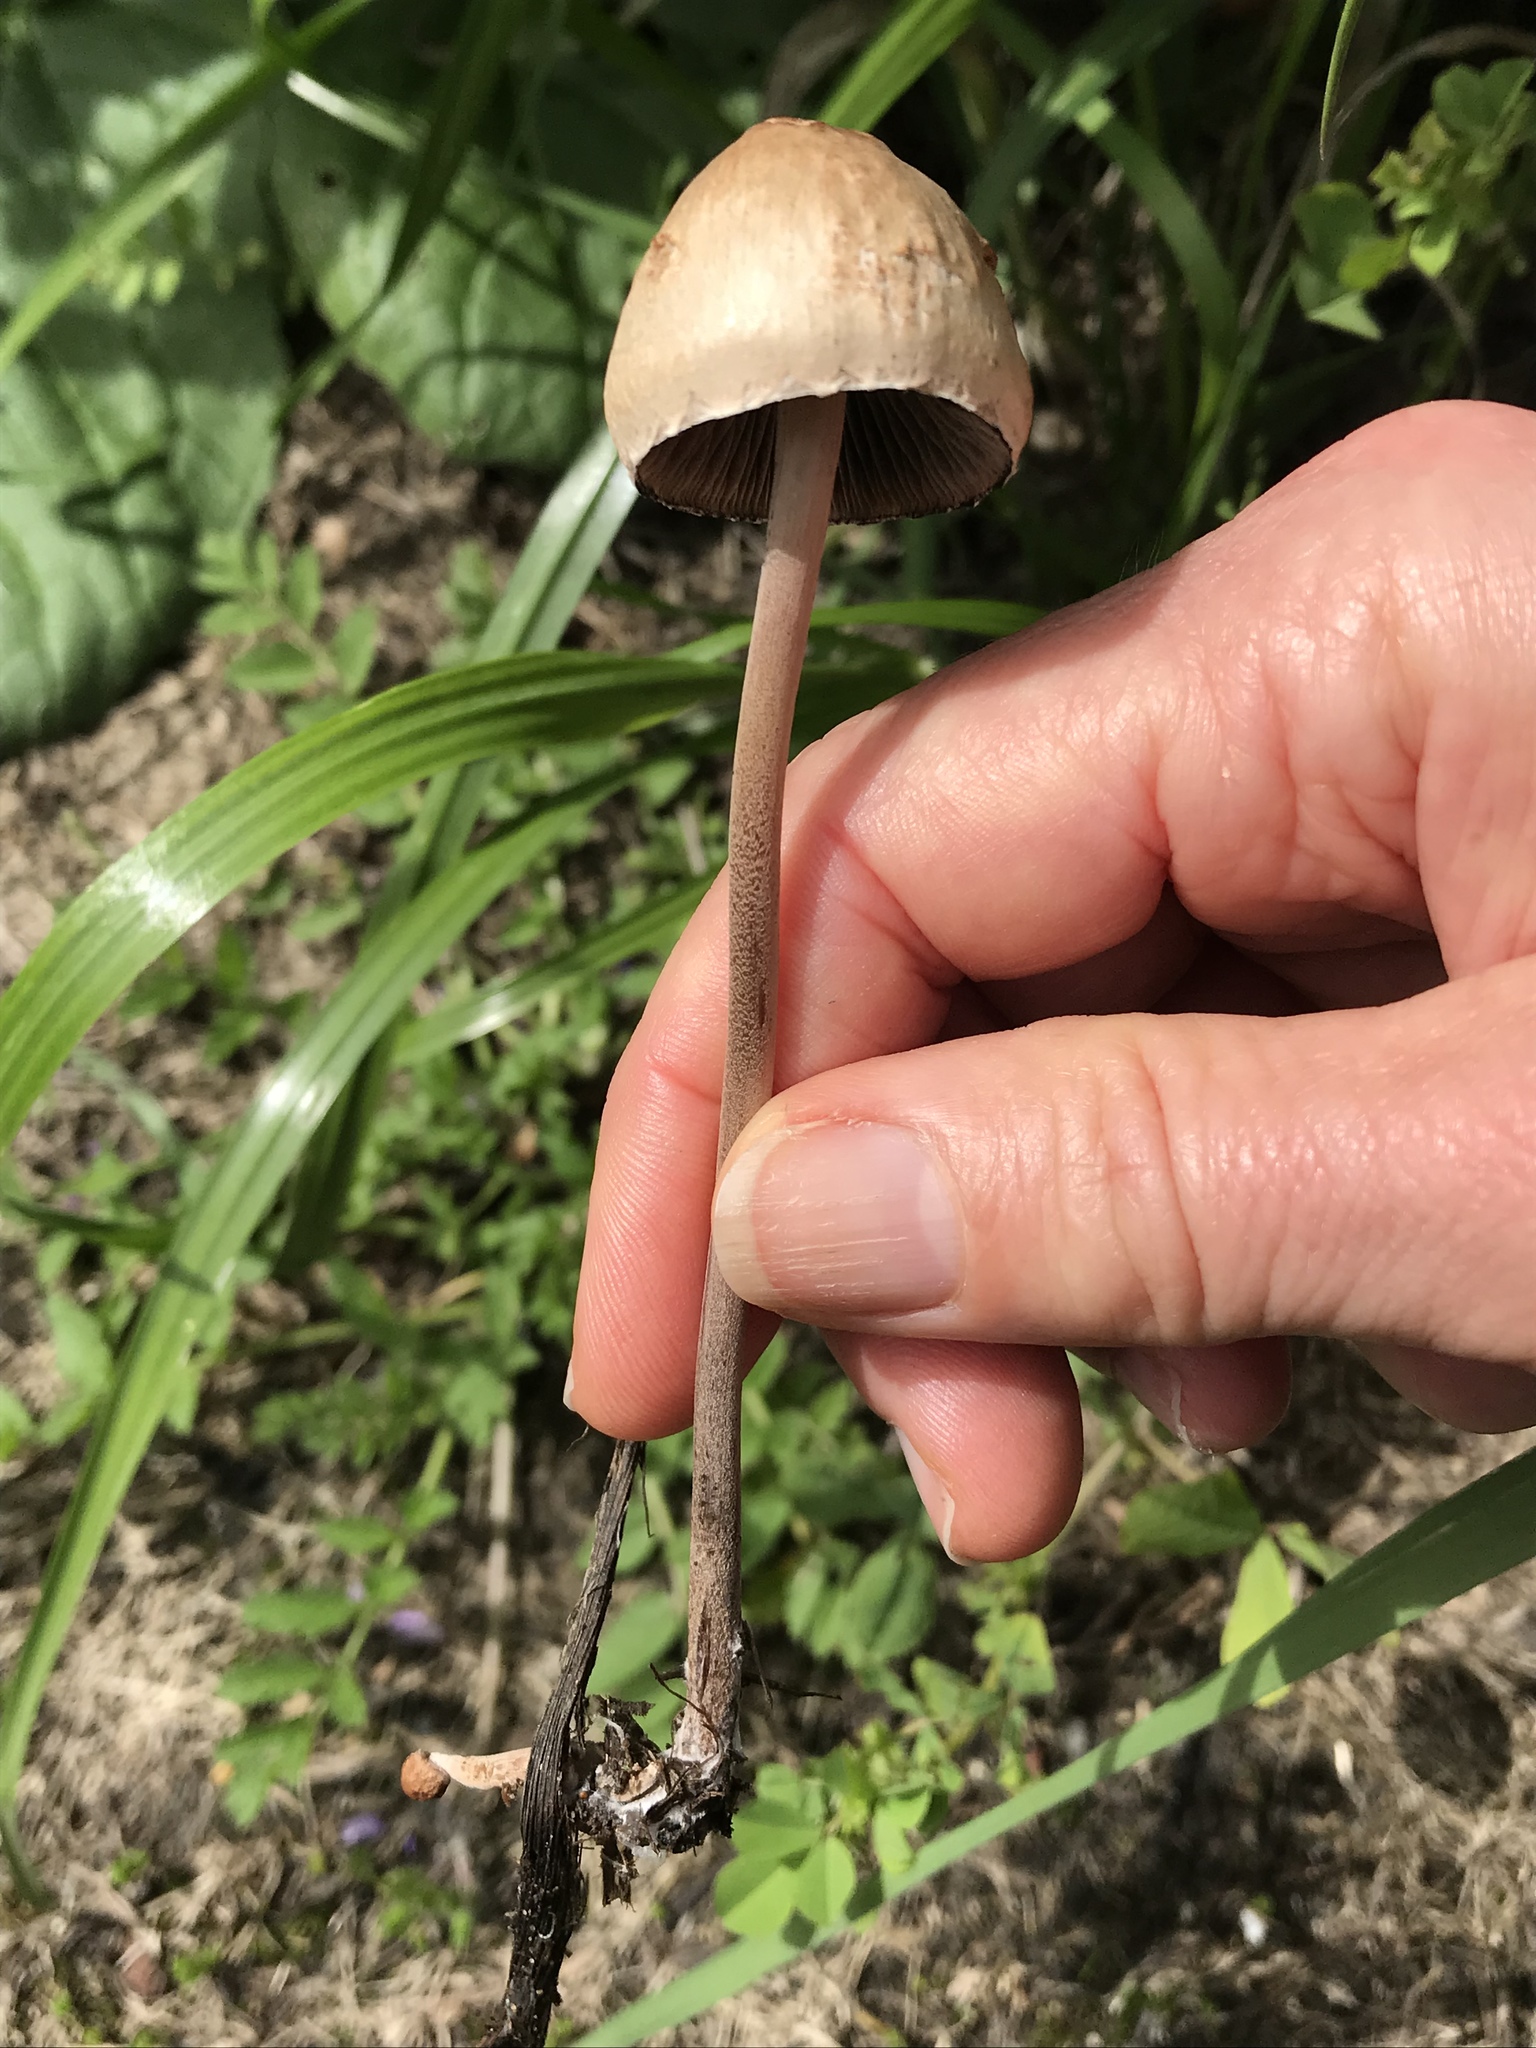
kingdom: Fungi
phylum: Basidiomycota
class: Agaricomycetes
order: Agaricales
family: Bolbitiaceae
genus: Panaeolus
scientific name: Panaeolus papilionaceus
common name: Petticoat mottlegill
